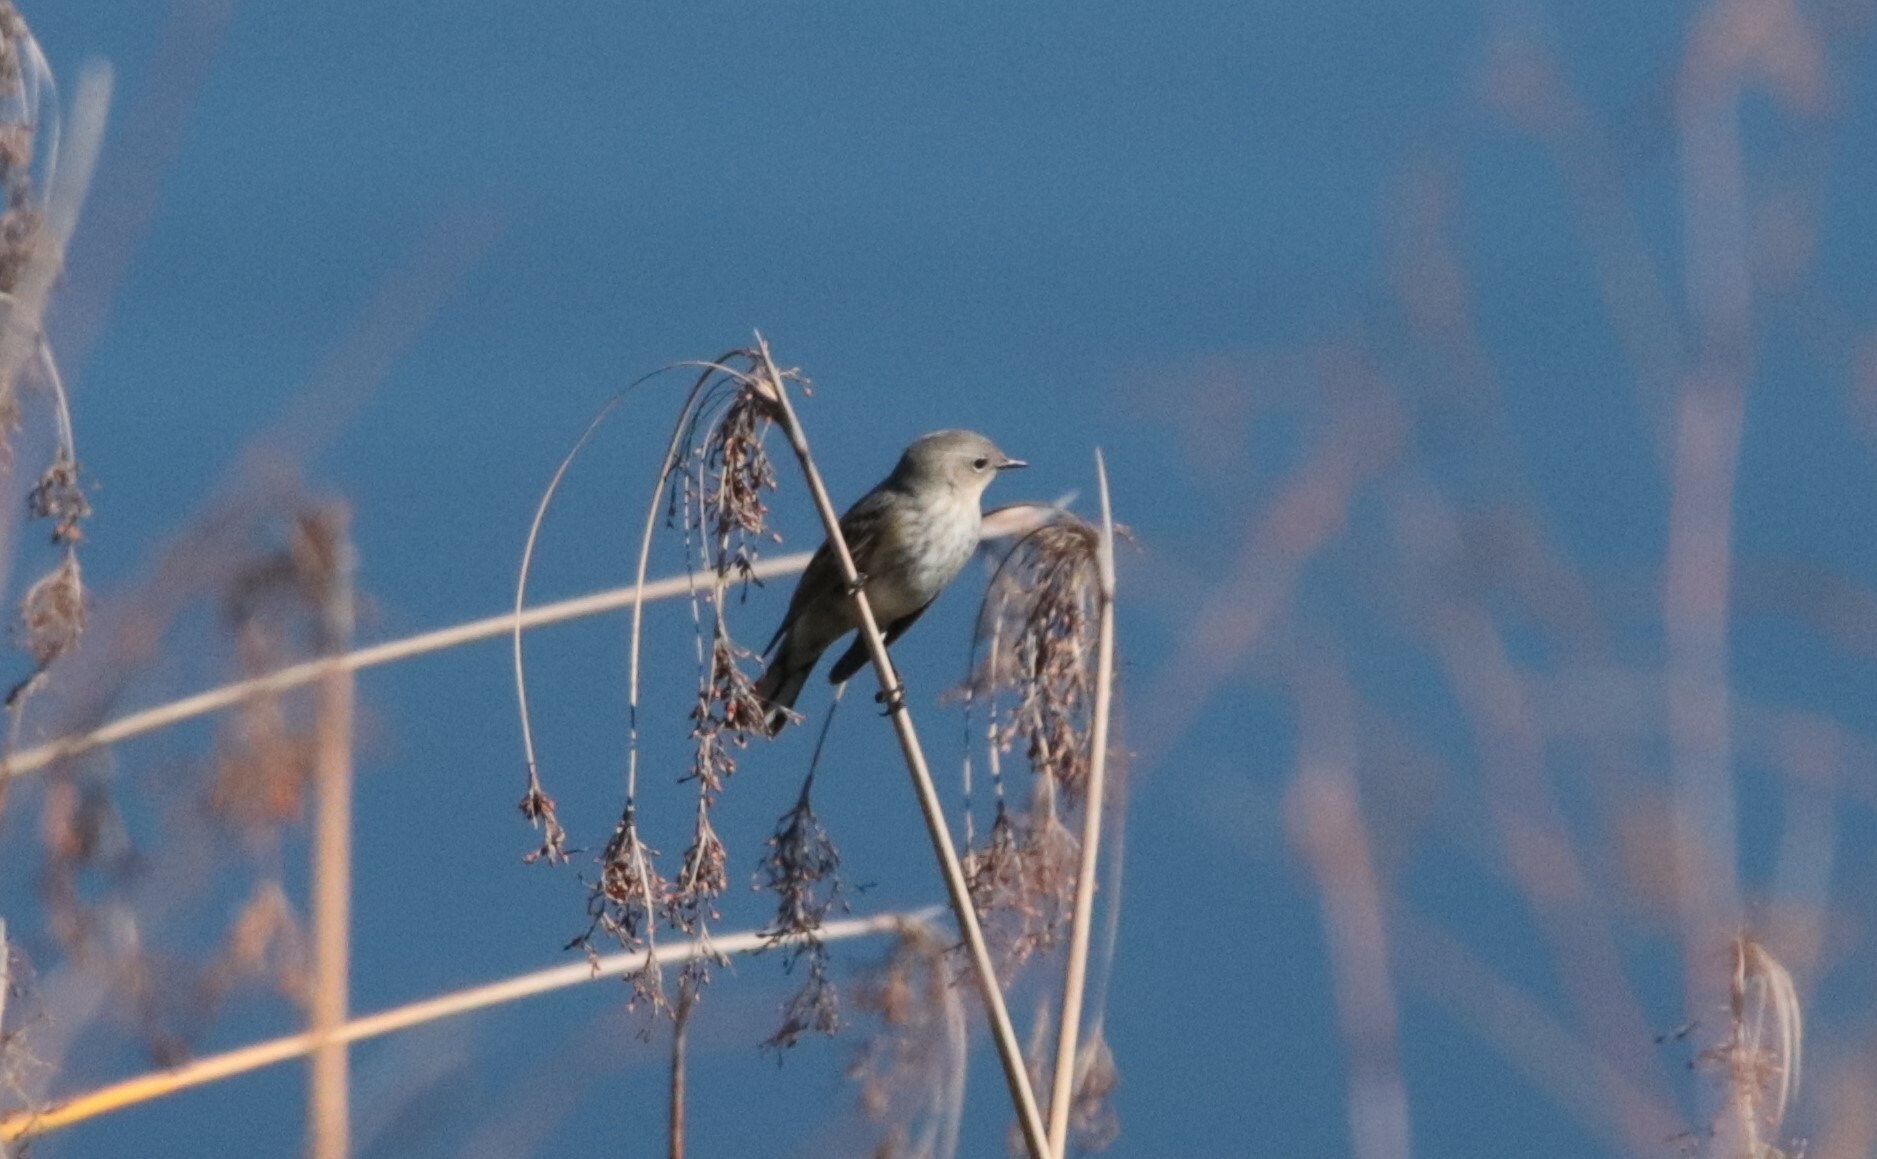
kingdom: Animalia
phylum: Chordata
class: Aves
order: Passeriformes
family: Parulidae
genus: Setophaga
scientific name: Setophaga coronata
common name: Myrtle warbler
